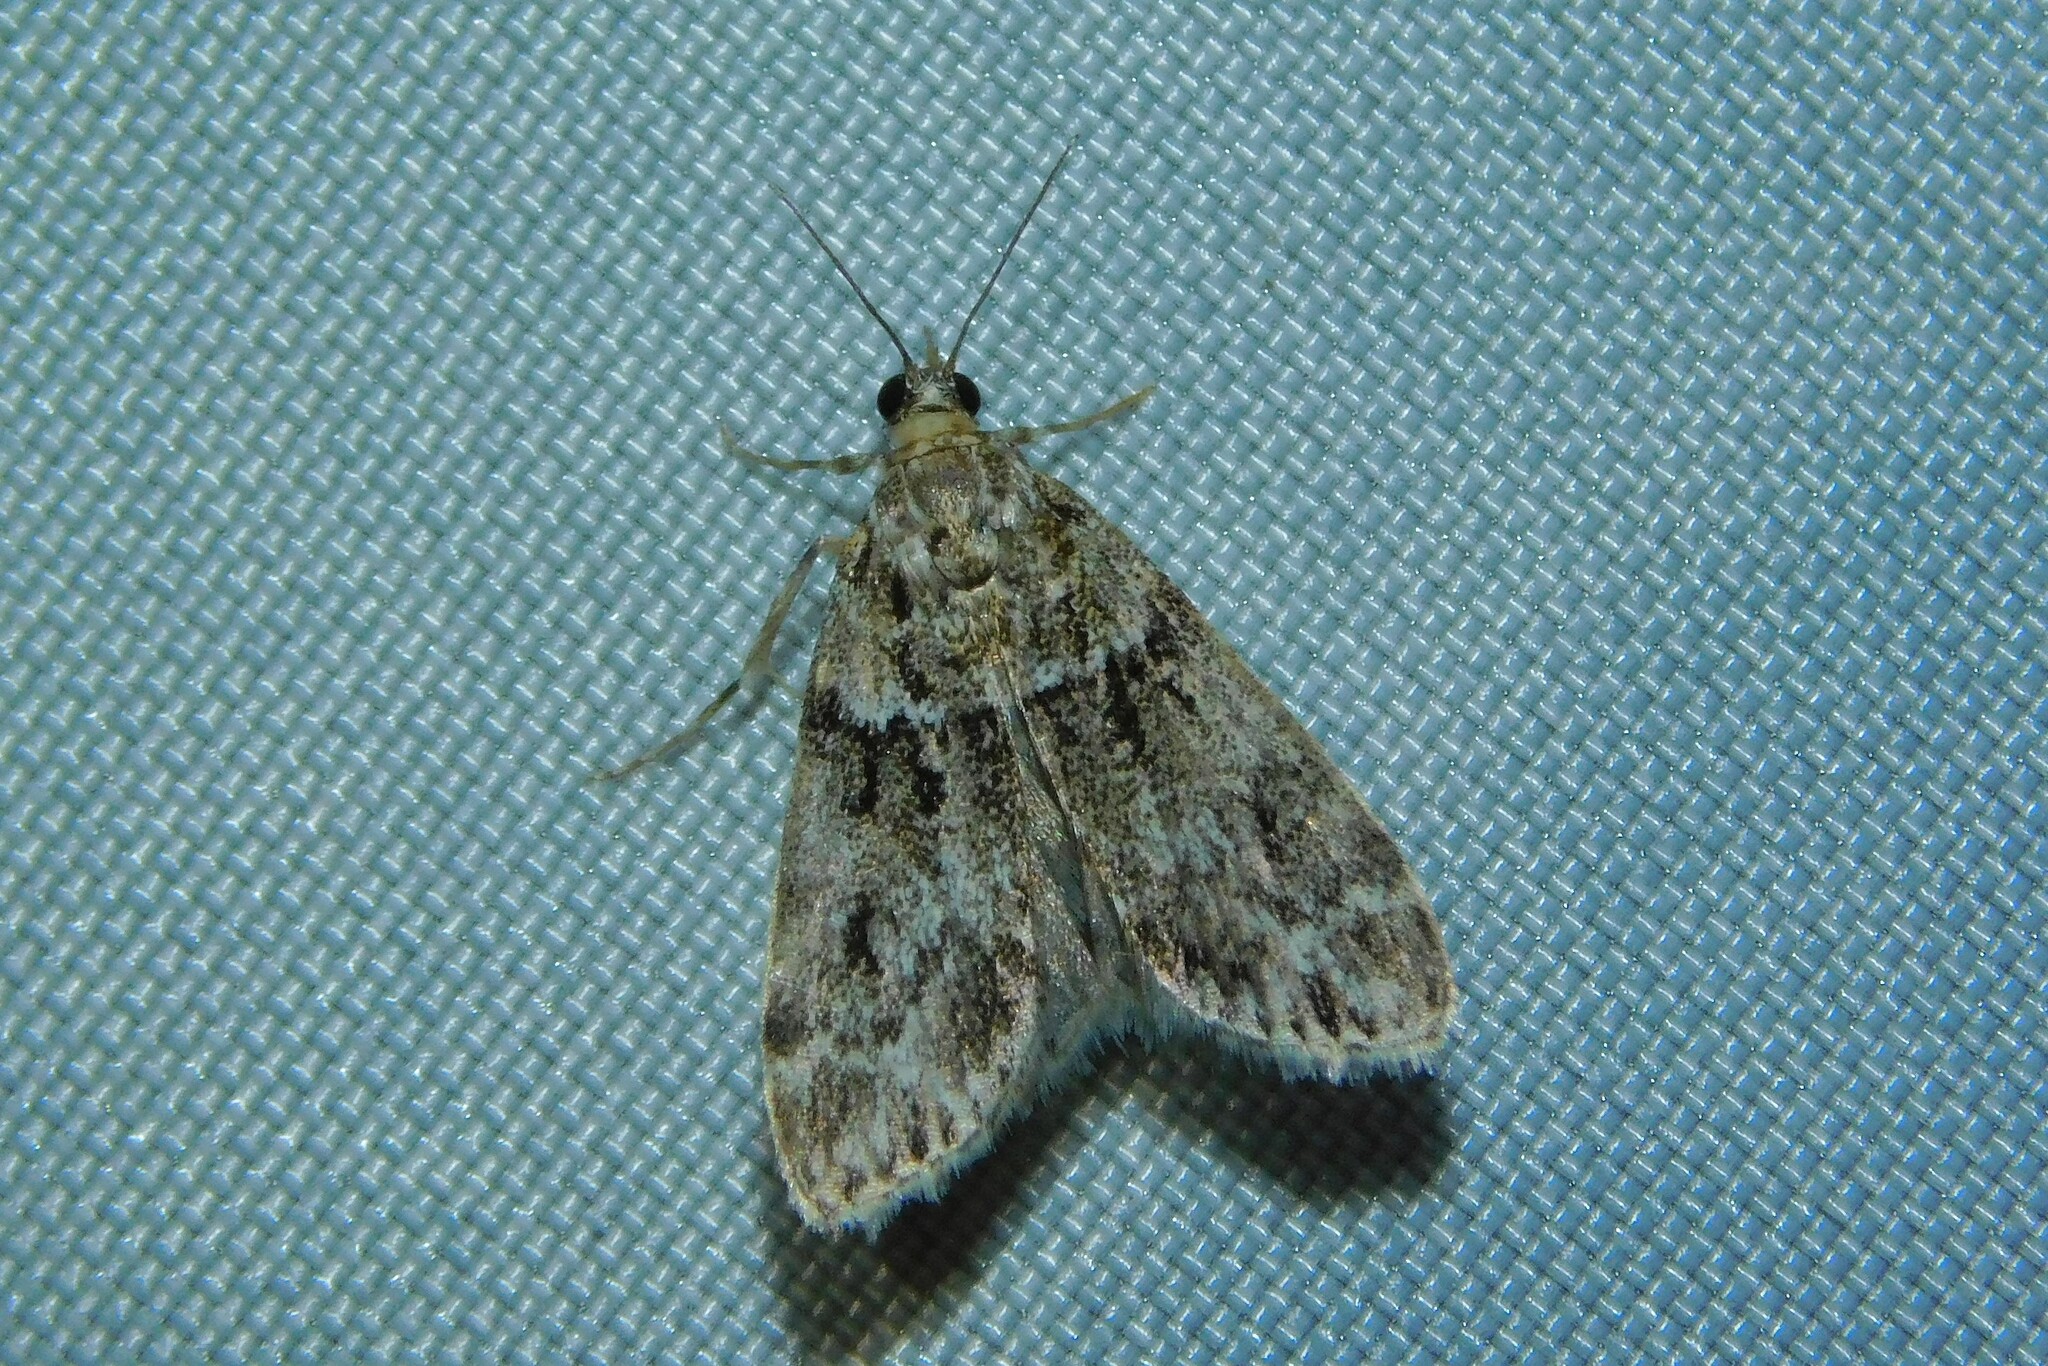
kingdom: Animalia
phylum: Arthropoda
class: Insecta
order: Lepidoptera
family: Crambidae
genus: Eudonia
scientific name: Eudonia mercurella
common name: Small grey
